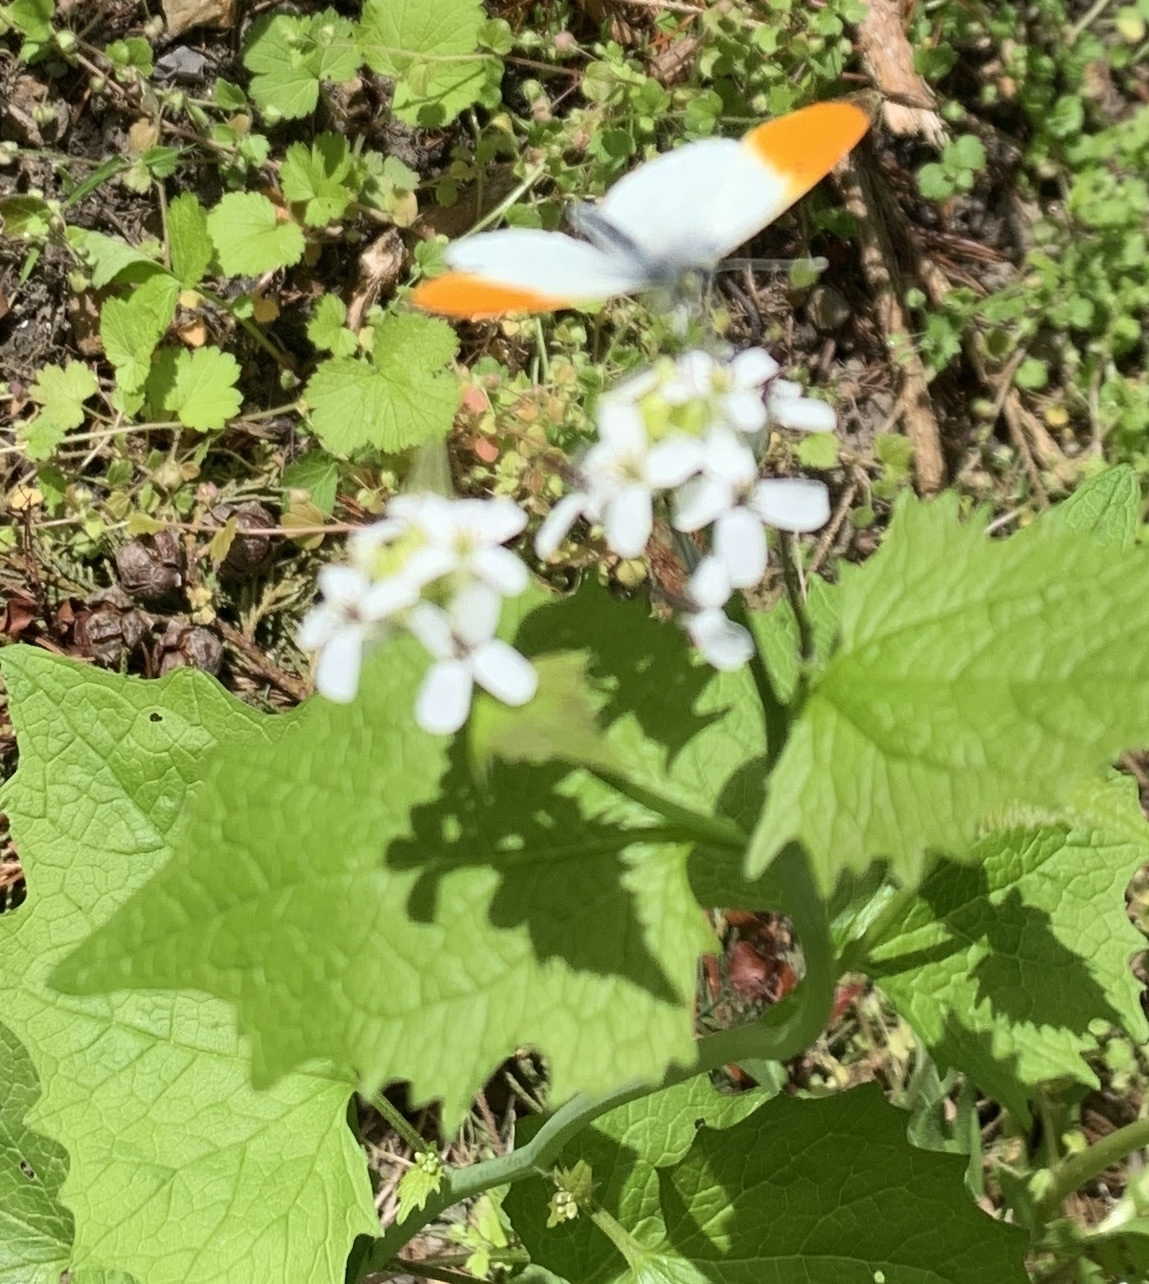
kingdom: Animalia
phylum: Arthropoda
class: Insecta
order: Lepidoptera
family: Pieridae
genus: Anthocharis
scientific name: Anthocharis cardamines
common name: Orange-tip
